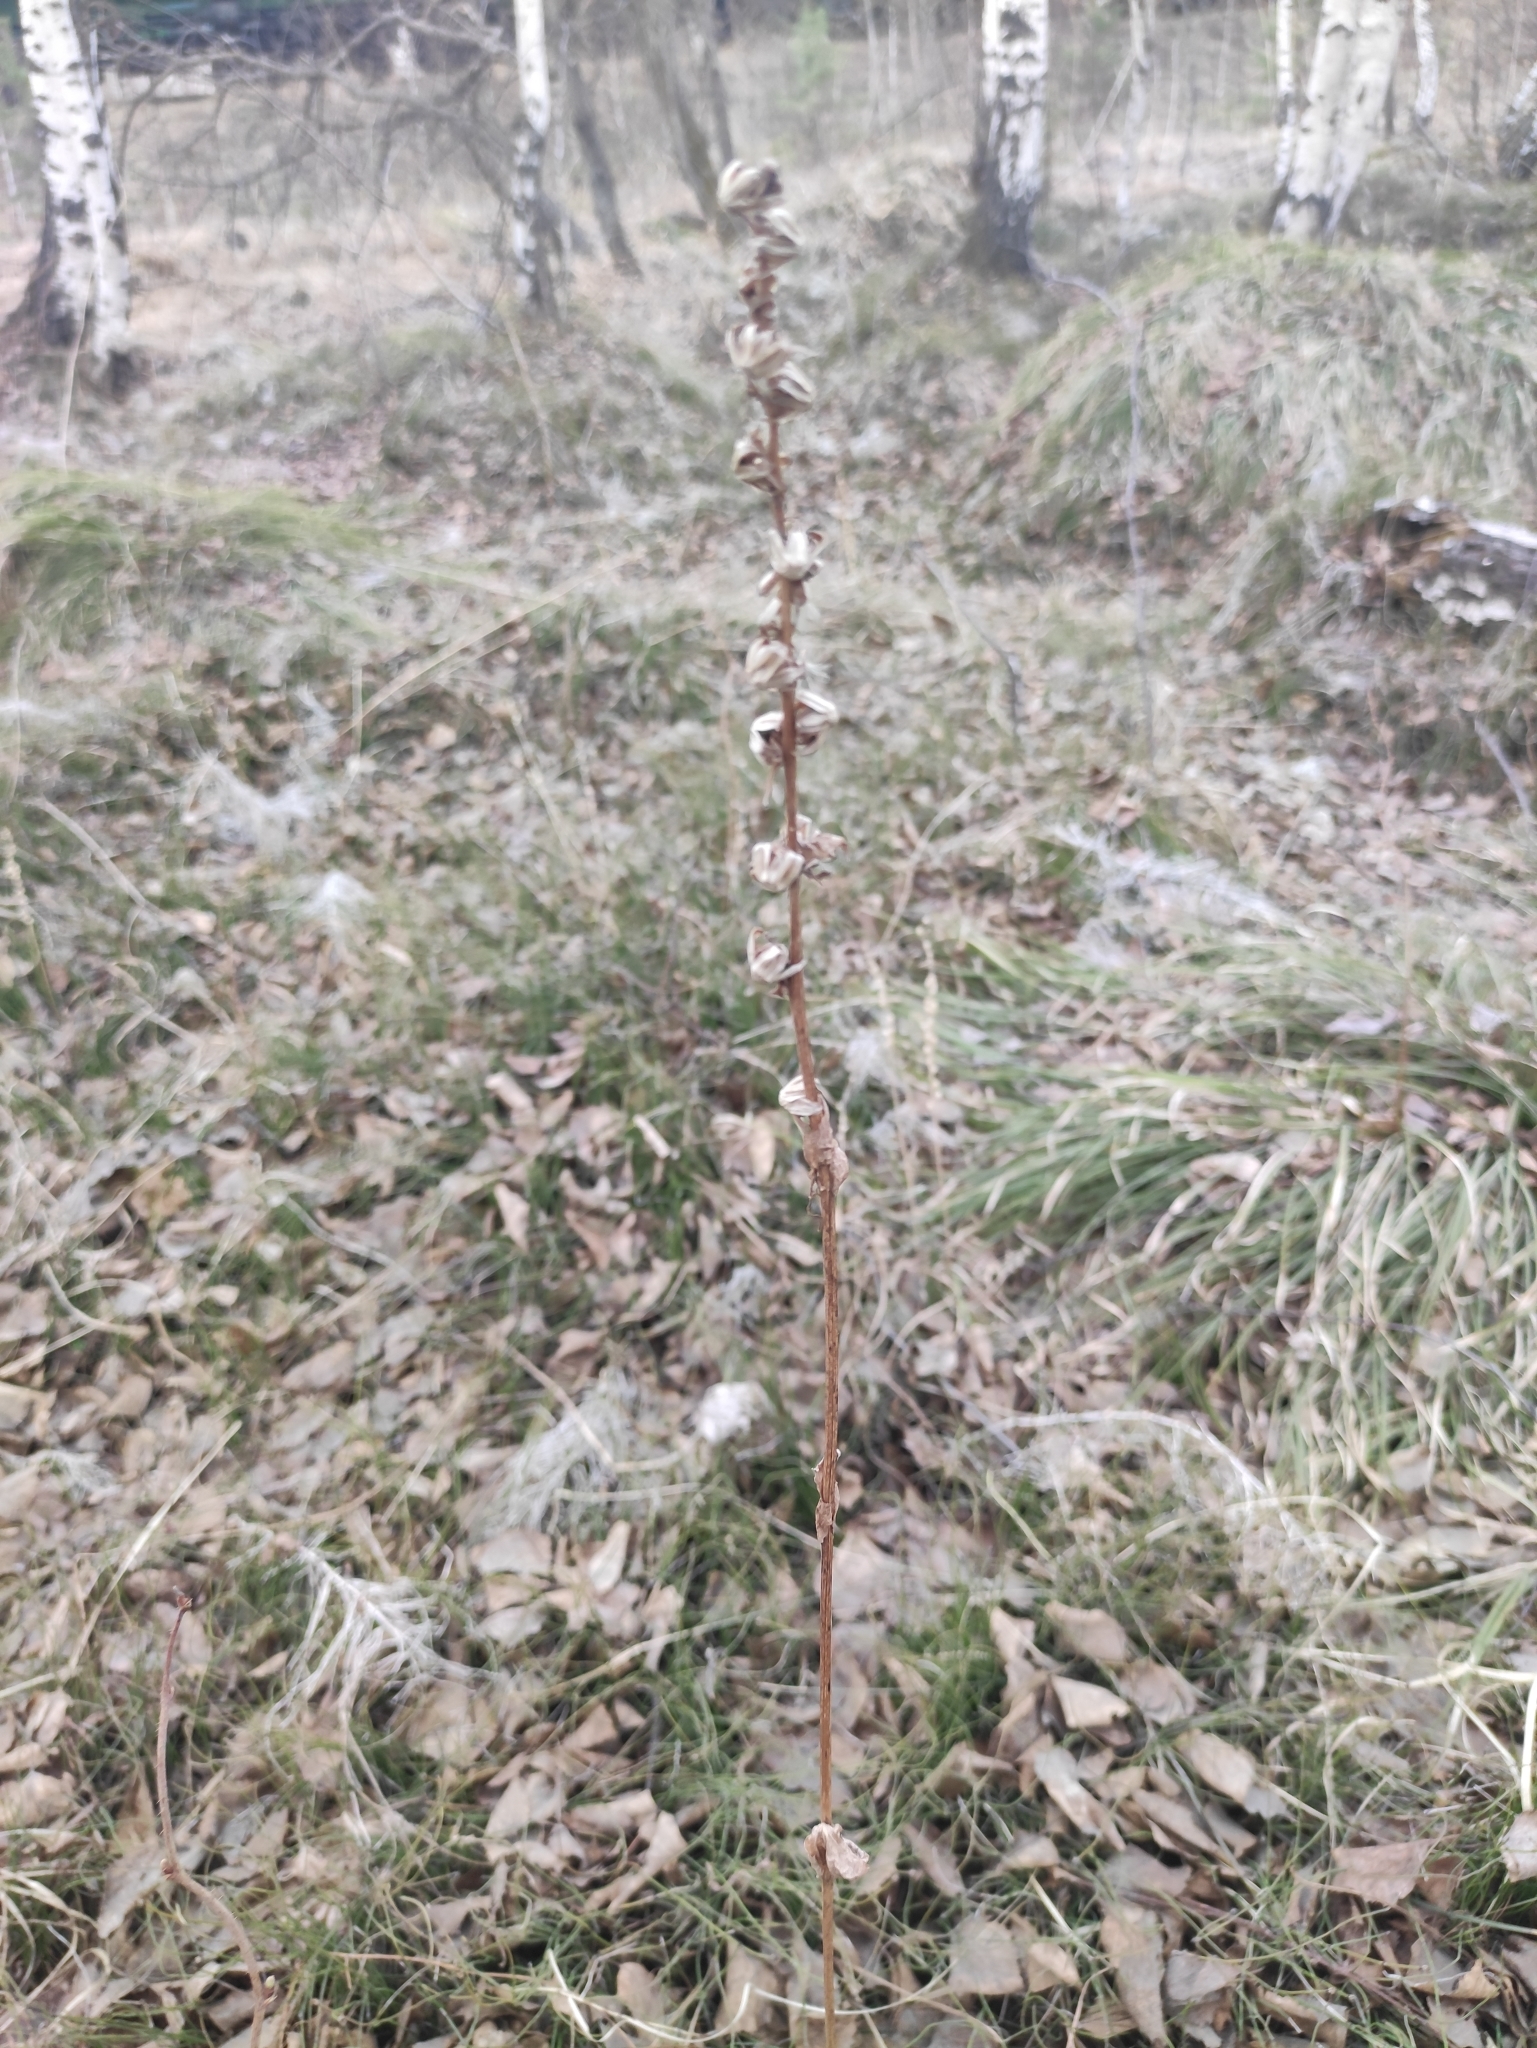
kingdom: Plantae
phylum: Tracheophyta
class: Magnoliopsida
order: Asterales
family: Asteraceae
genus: Ligularia
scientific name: Ligularia sibirica
